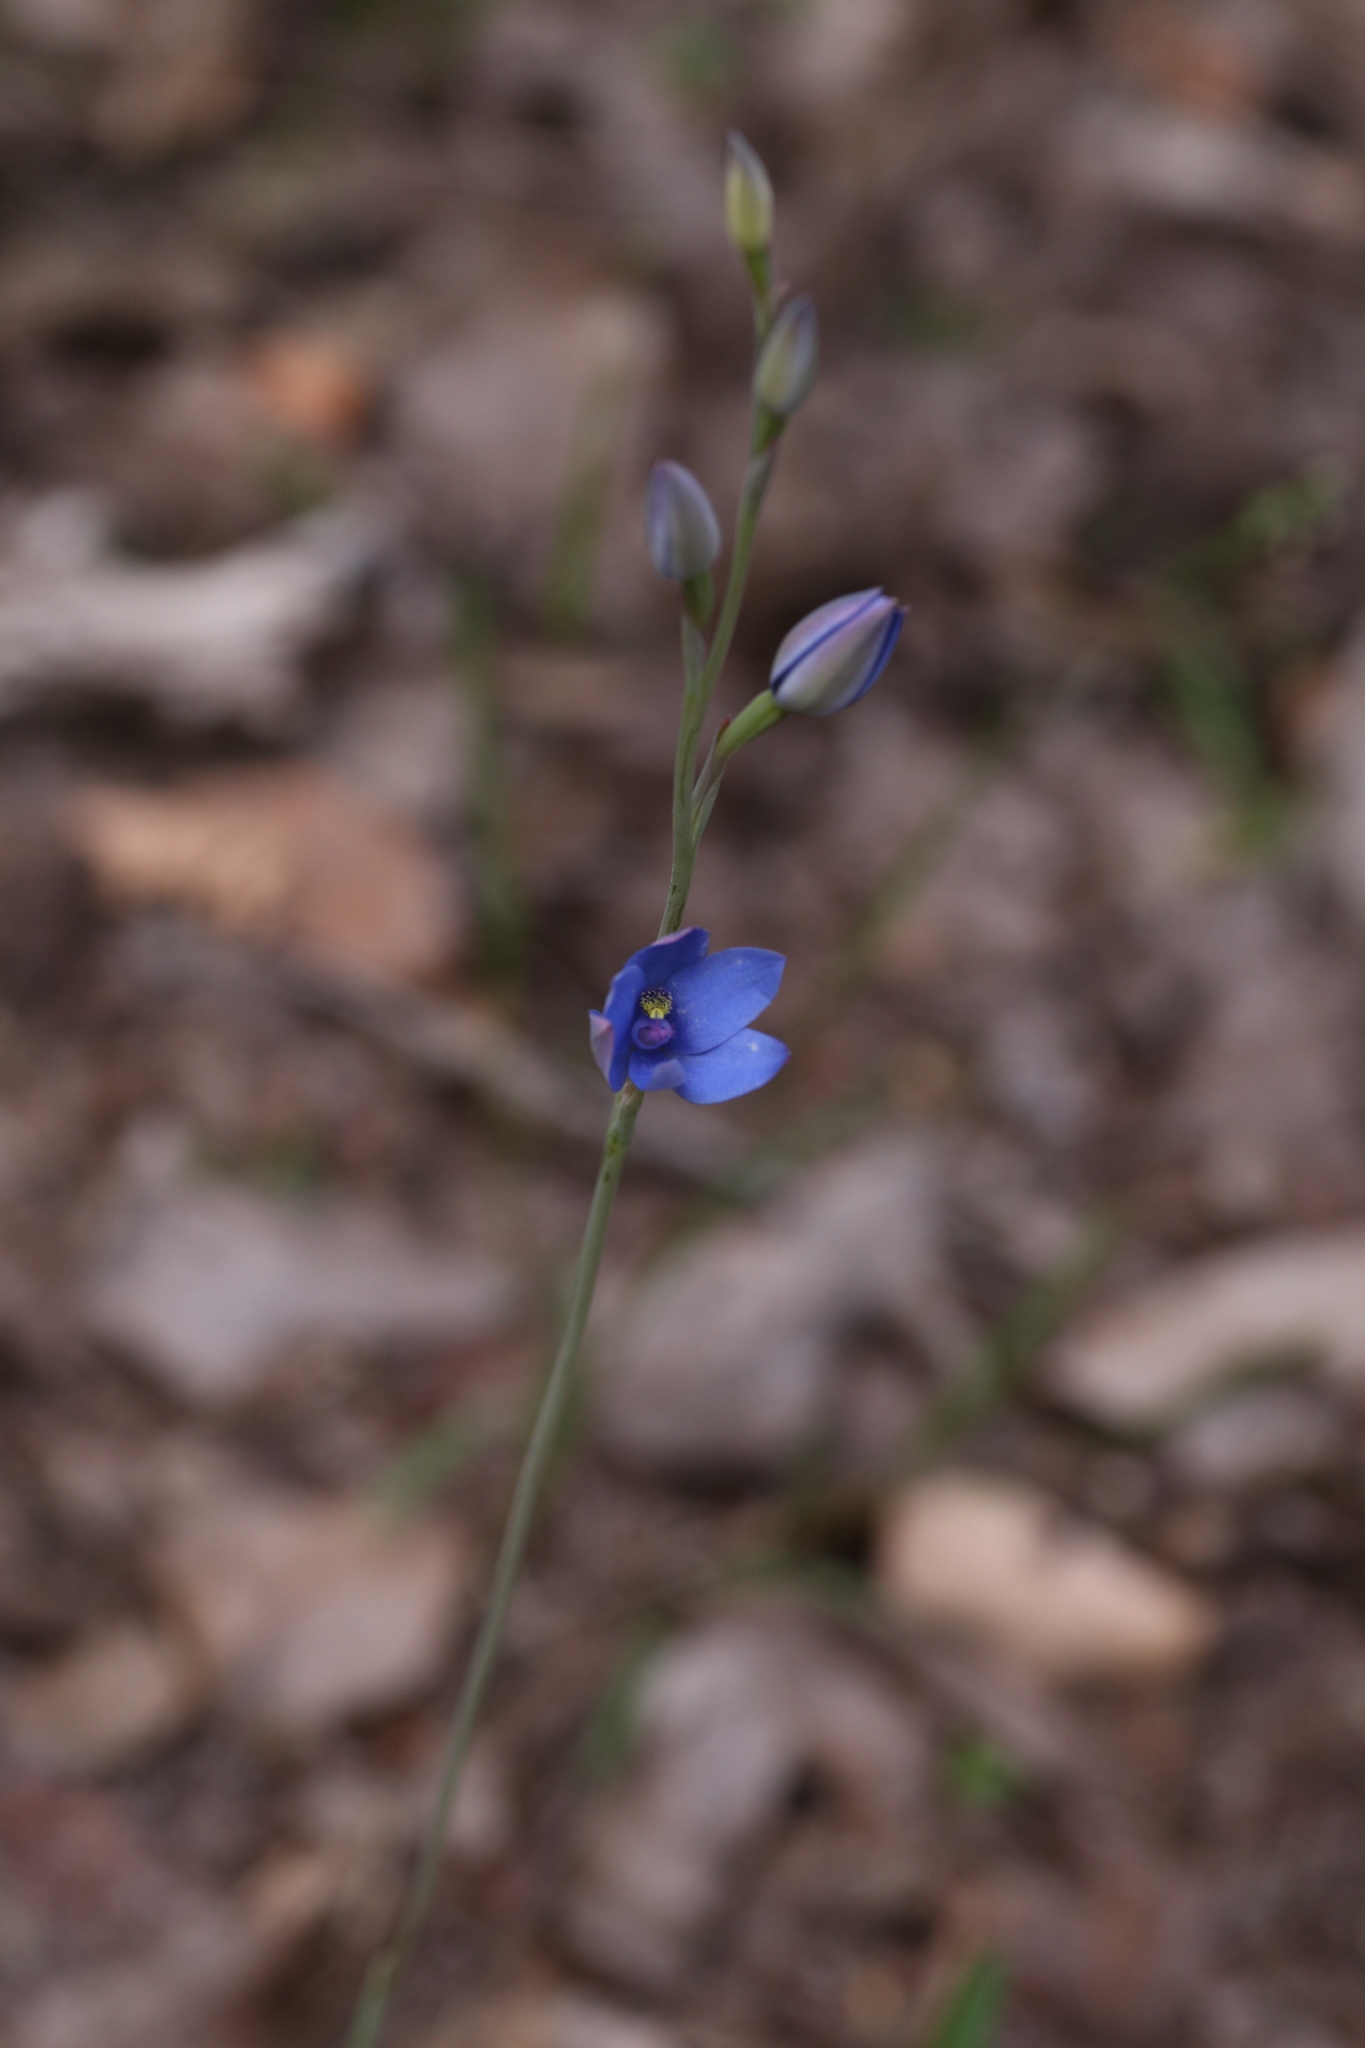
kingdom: Plantae
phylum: Tracheophyta
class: Liliopsida
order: Asparagales
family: Orchidaceae
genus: Thelymitra
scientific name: Thelymitra crinita
